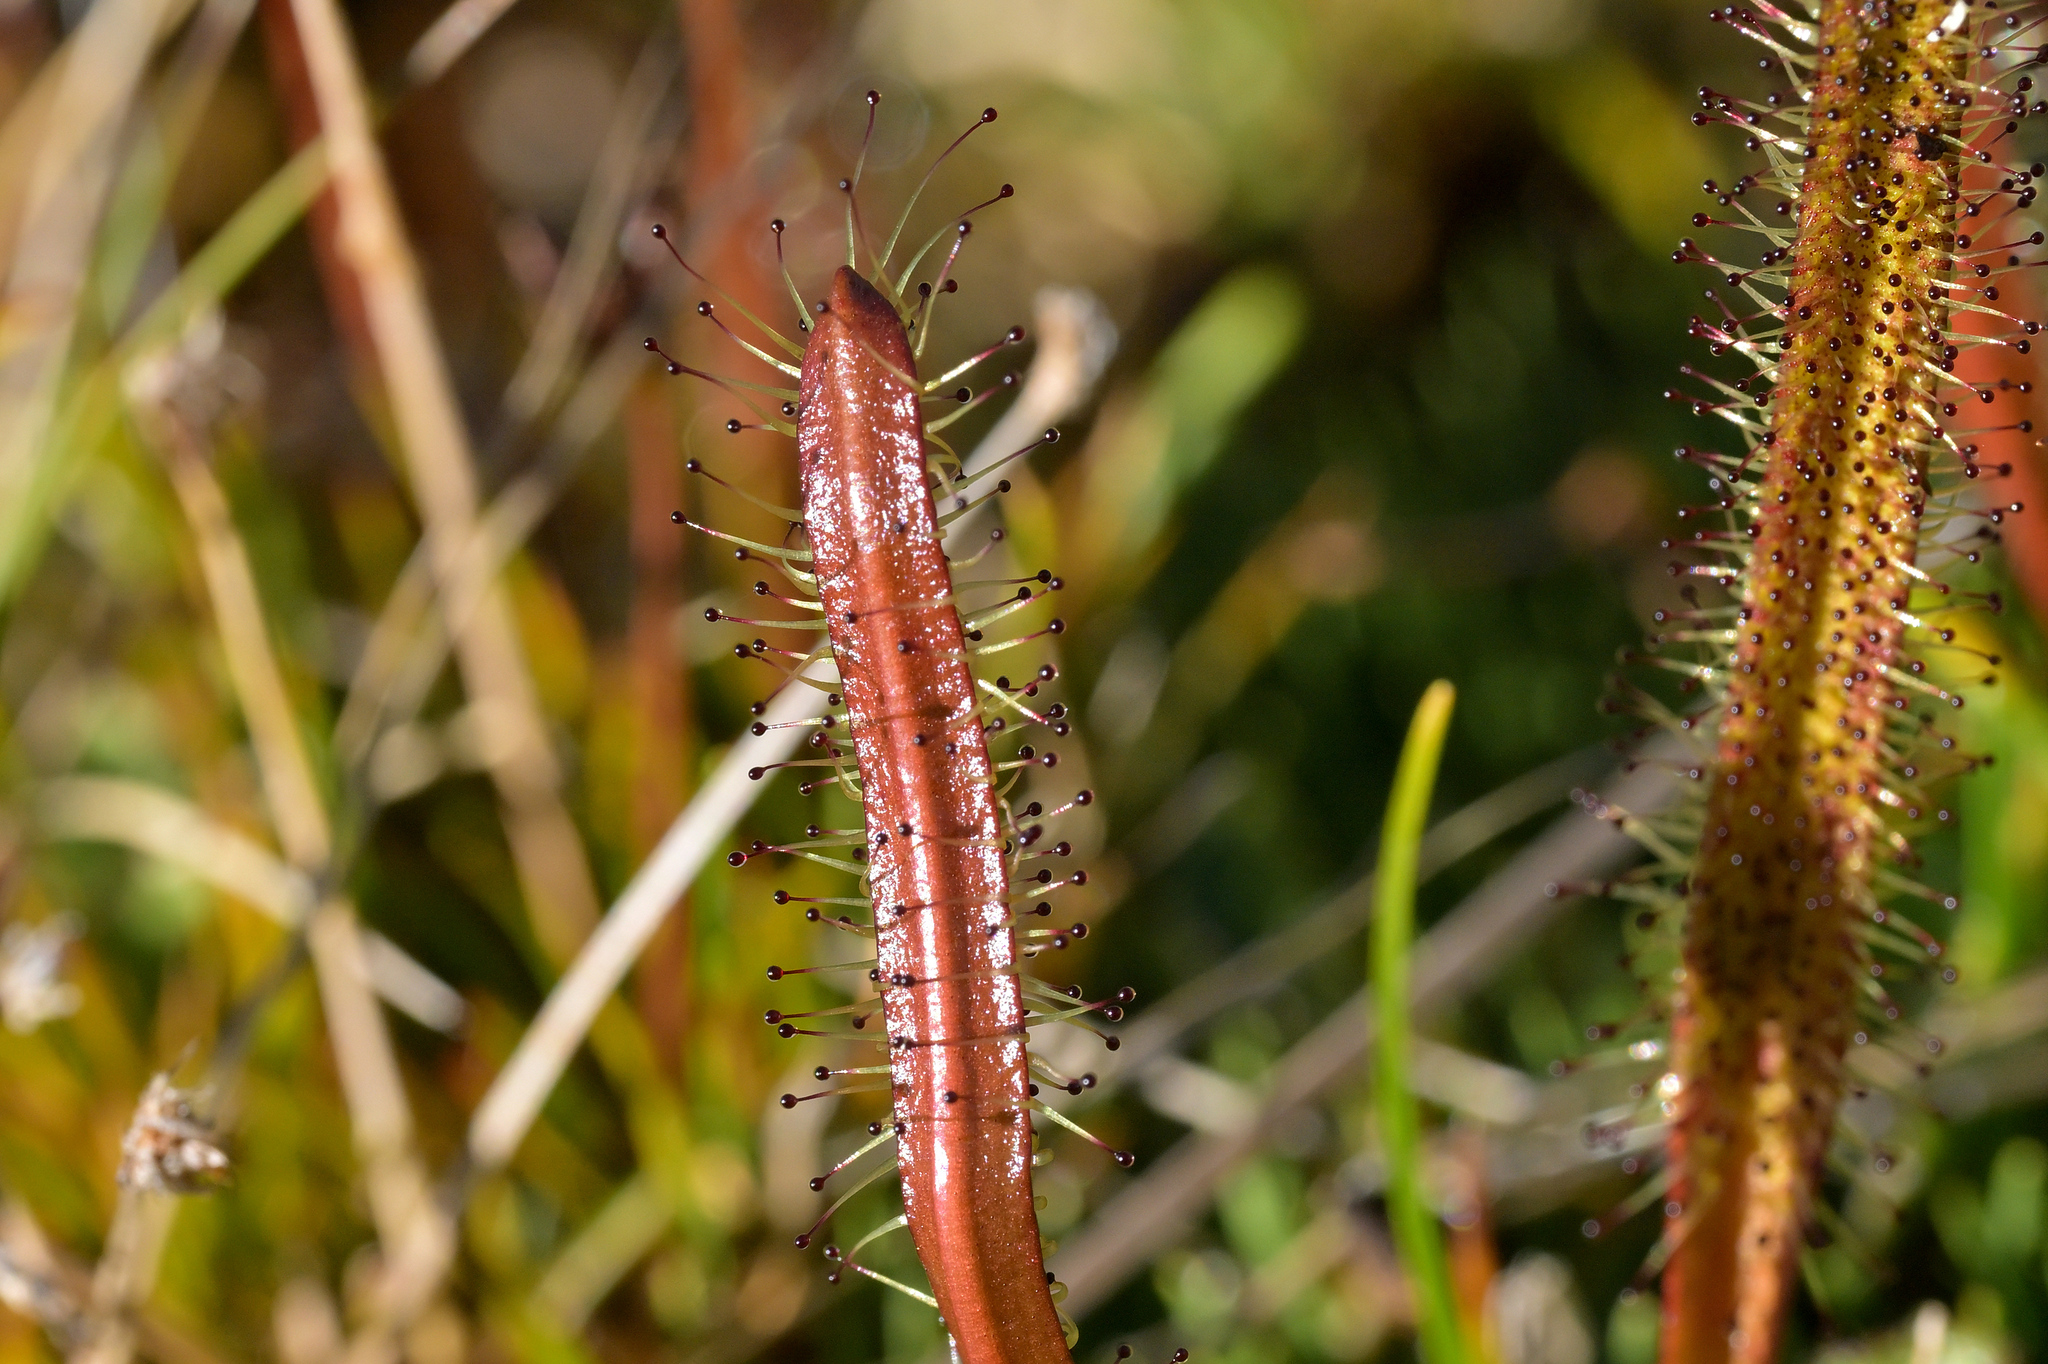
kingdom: Plantae
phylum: Tracheophyta
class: Magnoliopsida
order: Caryophyllales
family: Droseraceae
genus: Drosera
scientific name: Drosera arcturi
